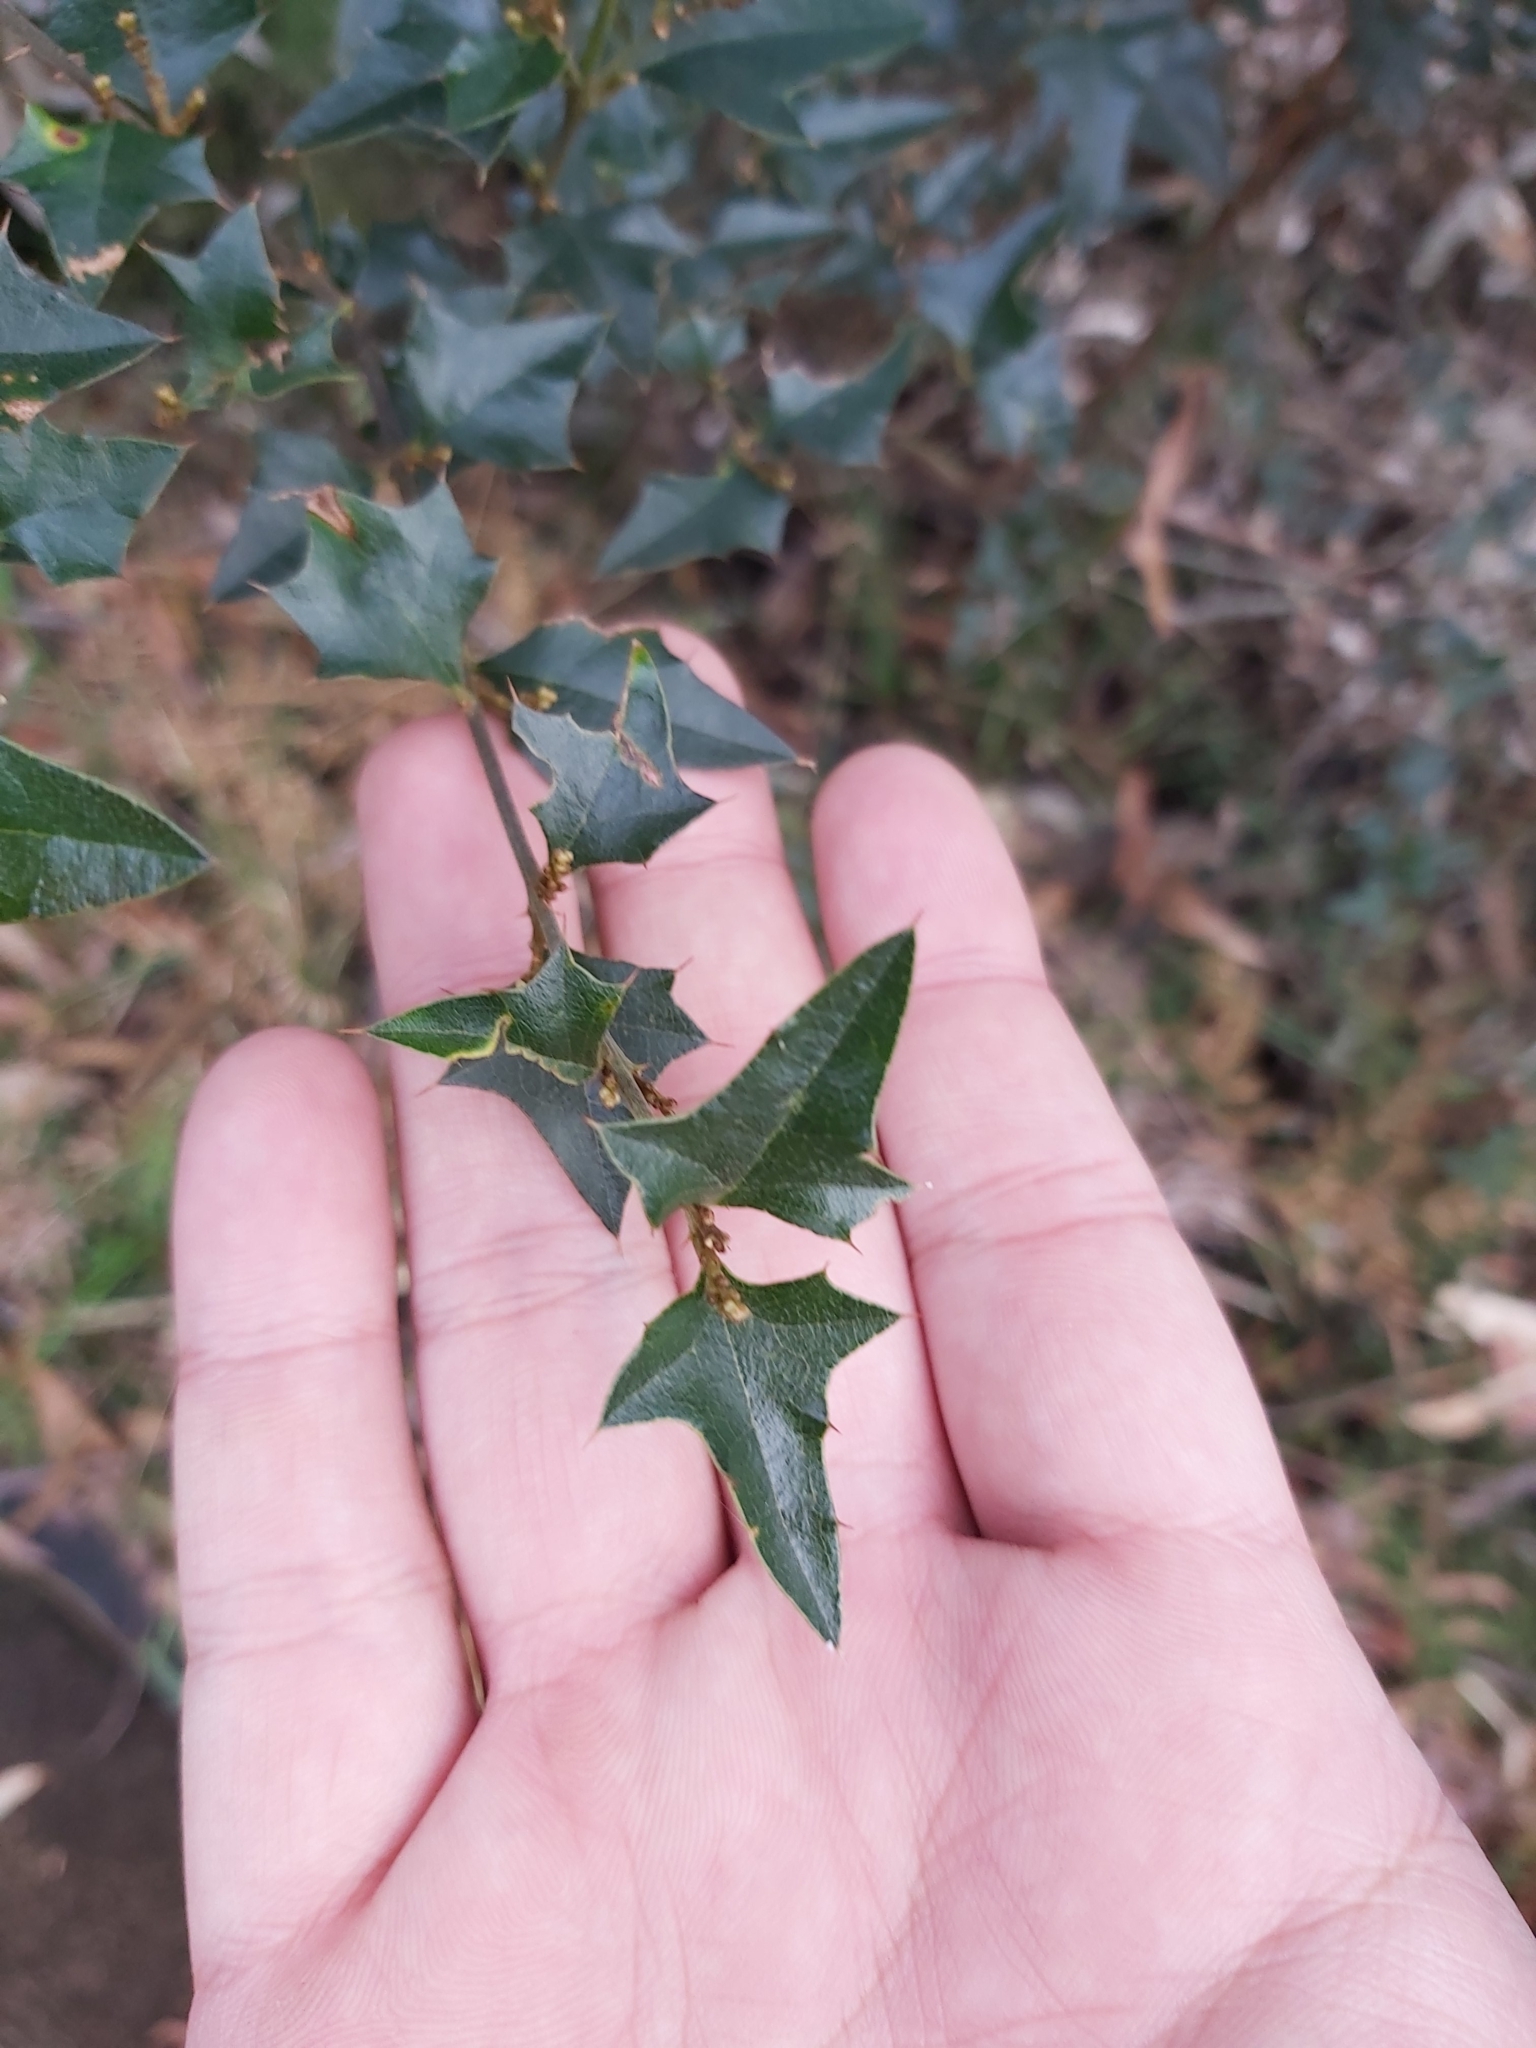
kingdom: Plantae
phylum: Tracheophyta
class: Magnoliopsida
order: Fabales
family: Fabaceae
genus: Podolobium
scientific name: Podolobium ilicifolium
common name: Native holly
